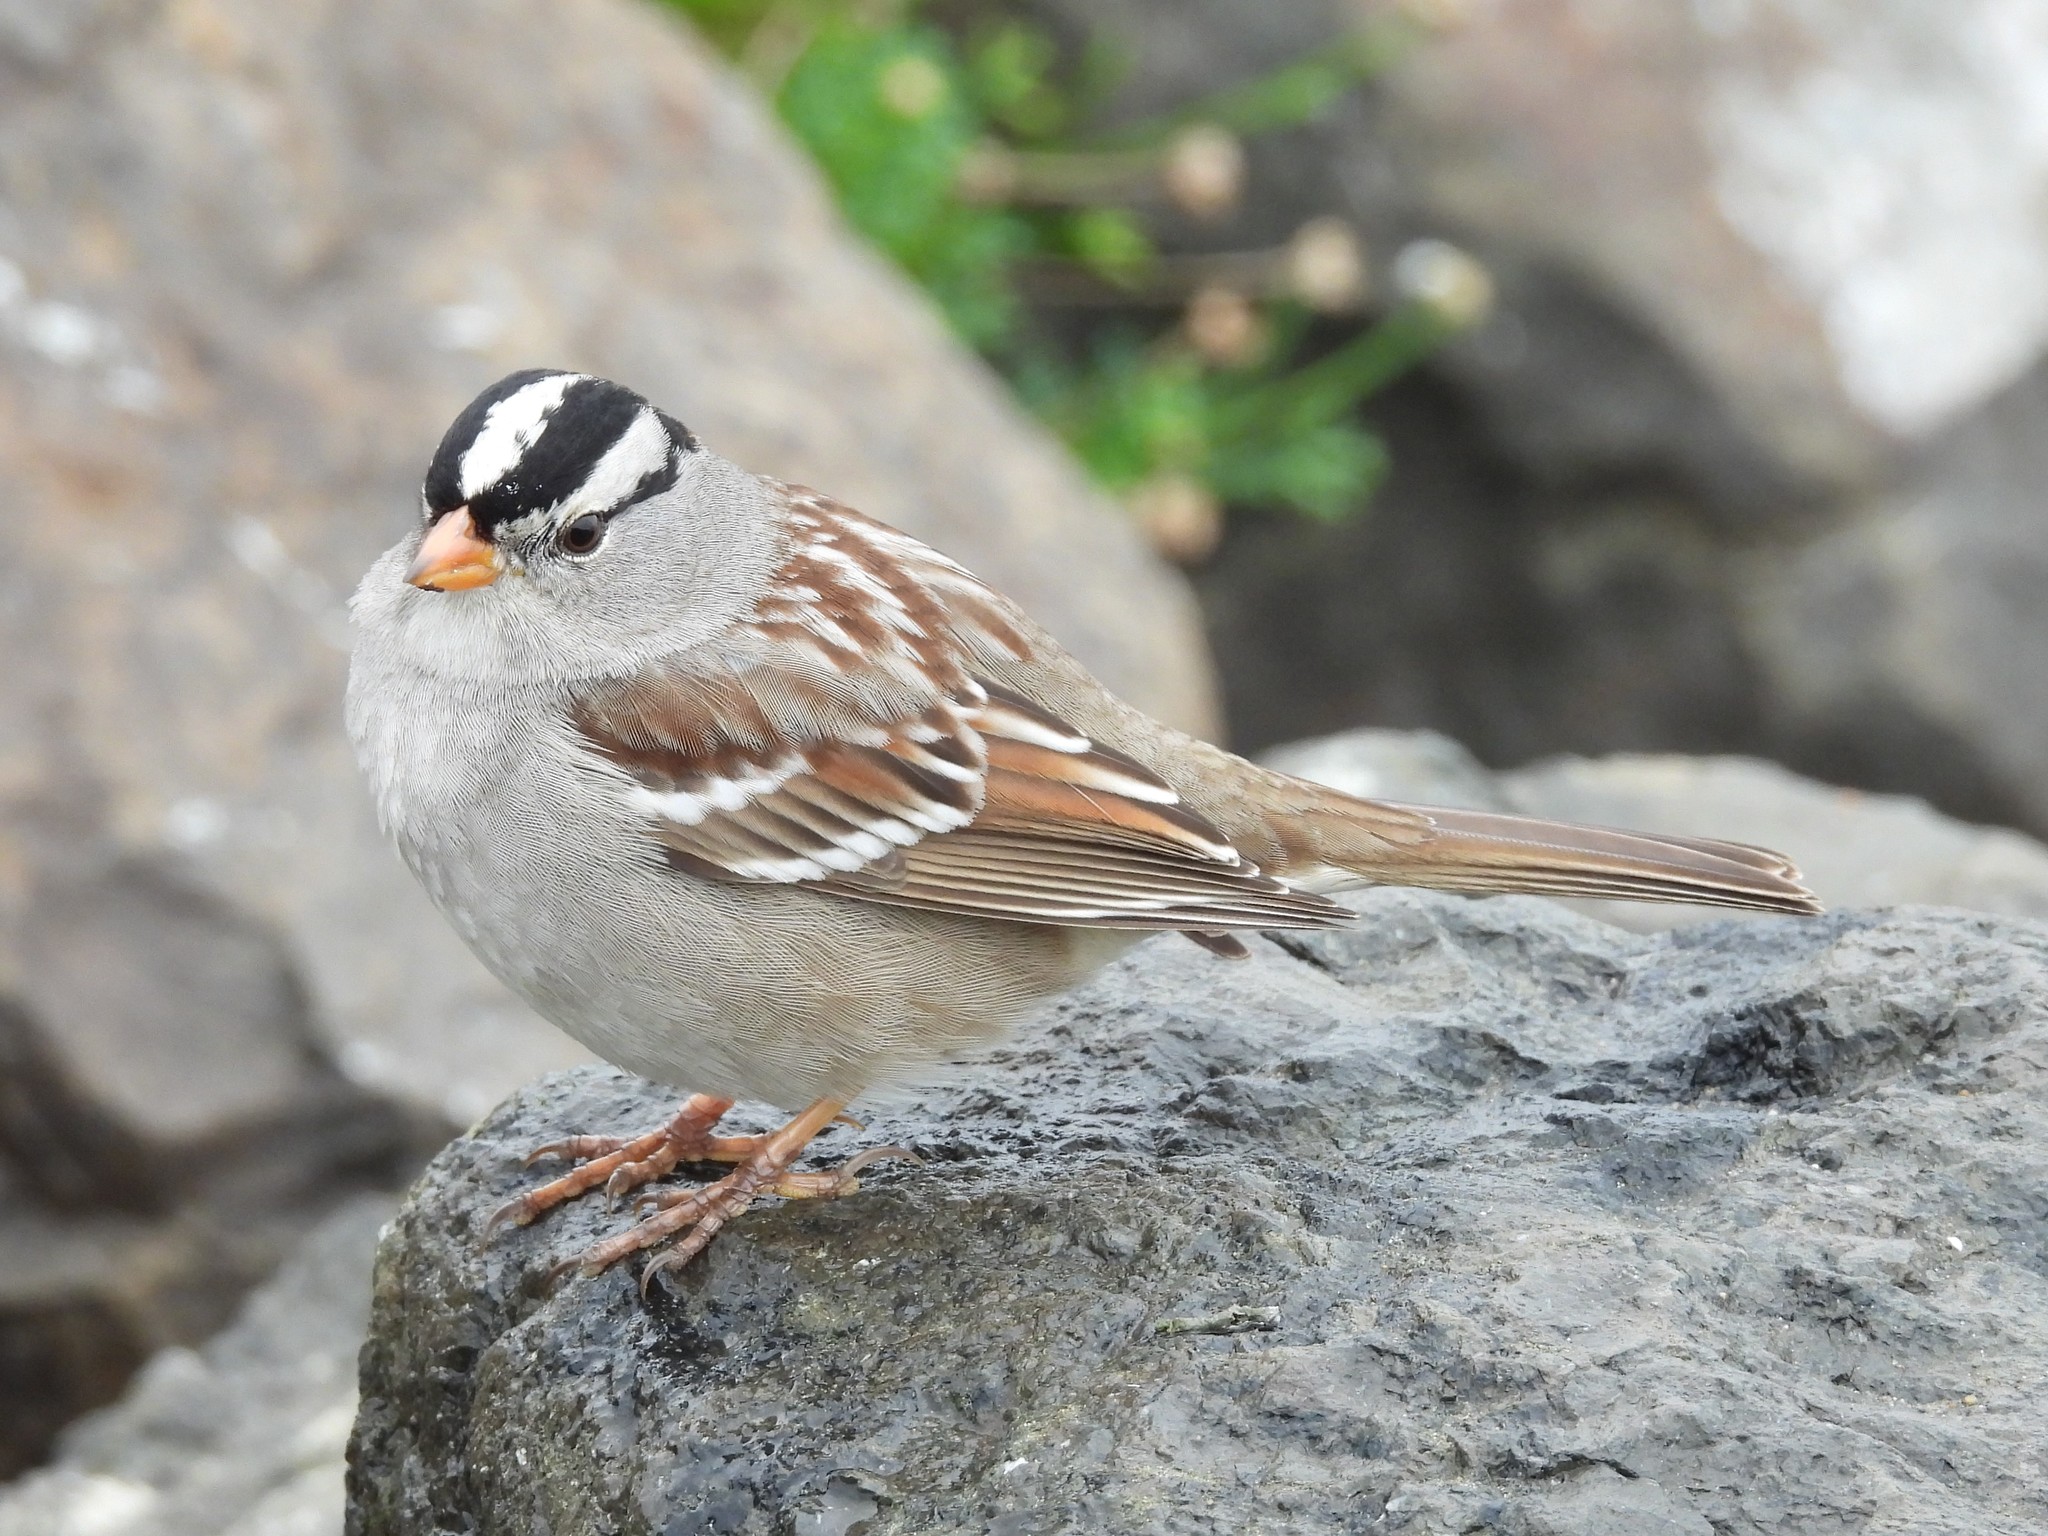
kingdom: Animalia
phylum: Chordata
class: Aves
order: Passeriformes
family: Passerellidae
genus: Zonotrichia
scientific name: Zonotrichia leucophrys
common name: White-crowned sparrow
